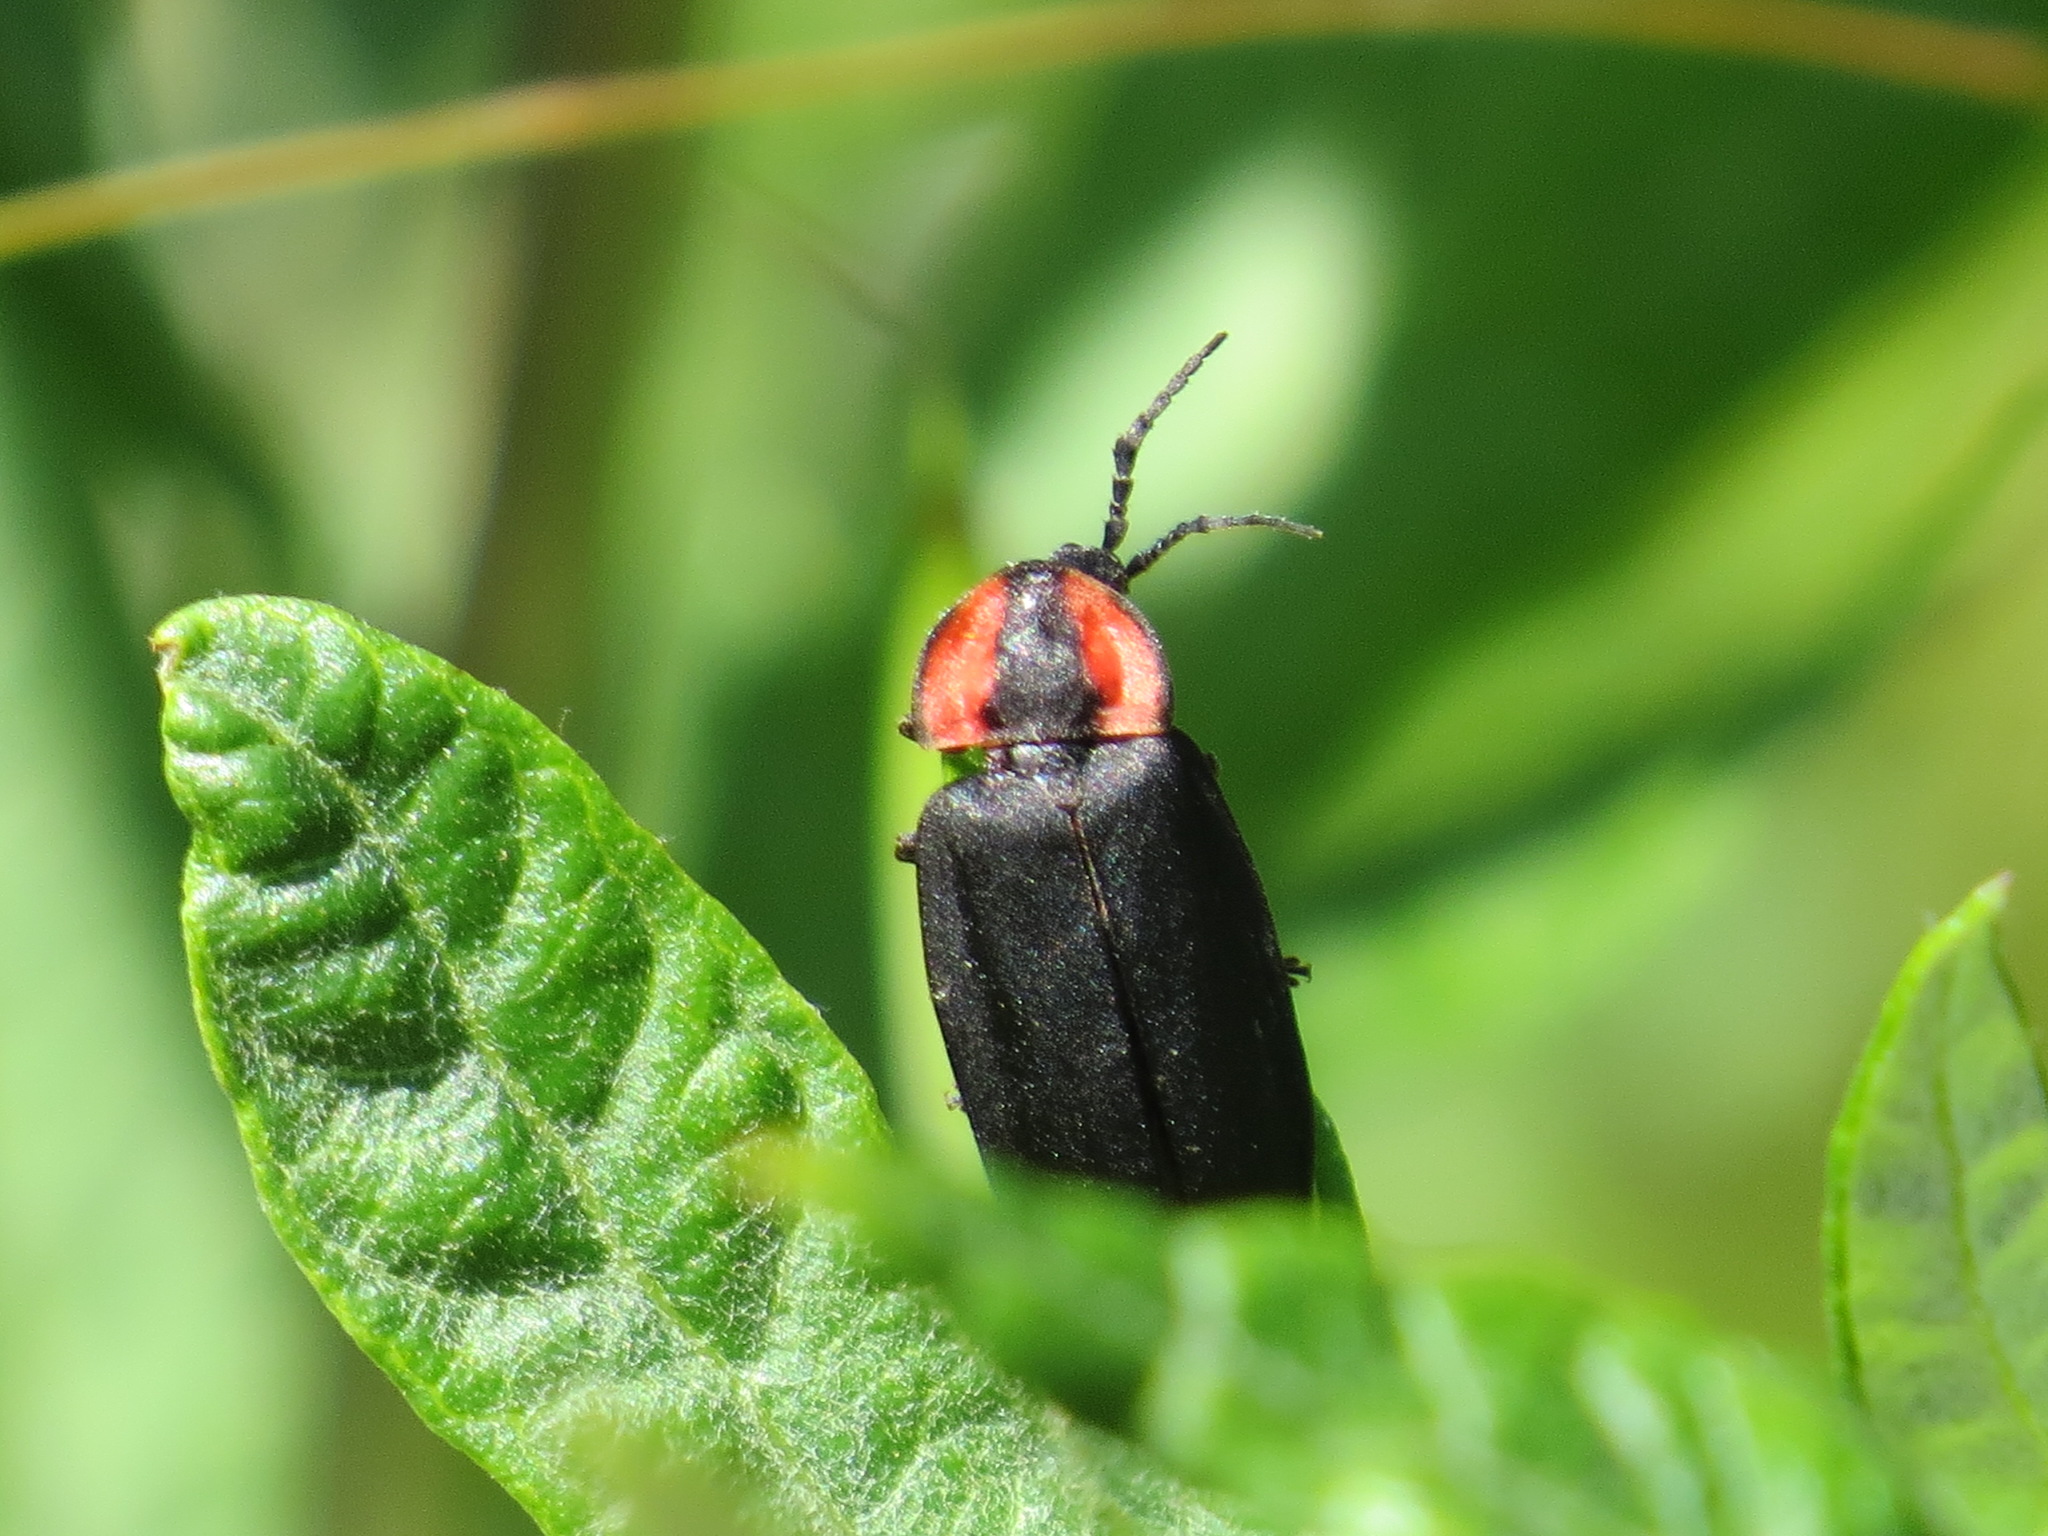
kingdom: Animalia
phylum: Arthropoda
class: Insecta
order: Coleoptera
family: Lampyridae
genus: Photinus
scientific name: Photinus californica
